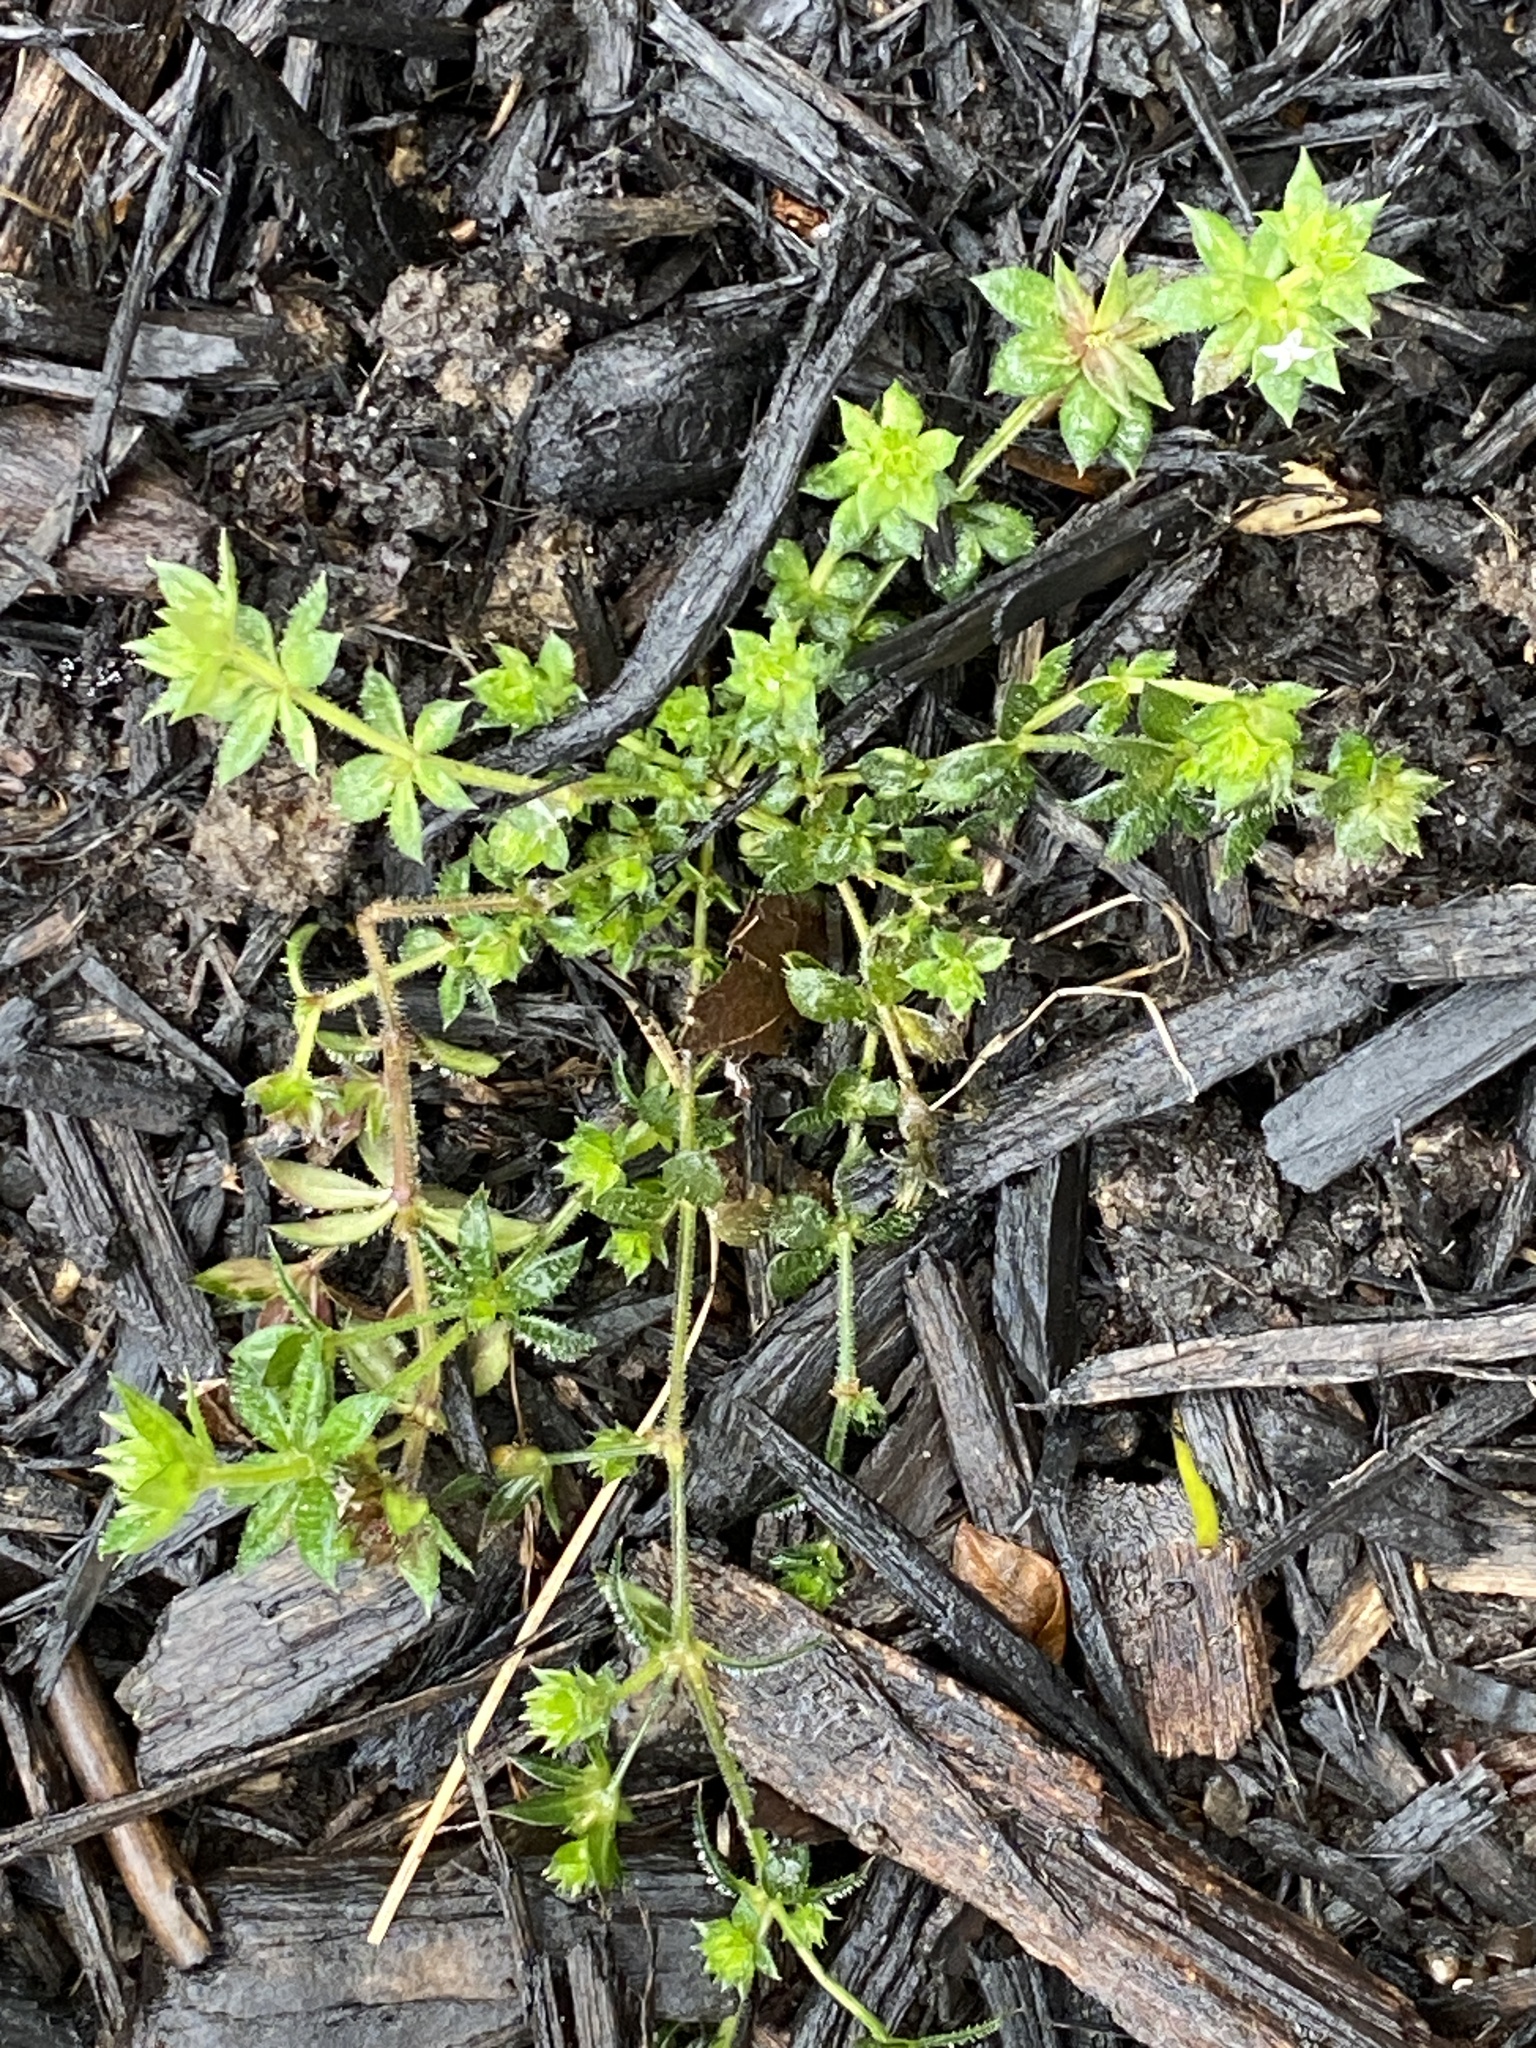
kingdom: Plantae
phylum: Tracheophyta
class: Magnoliopsida
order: Gentianales
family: Rubiaceae
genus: Sherardia
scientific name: Sherardia arvensis
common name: Field madder
